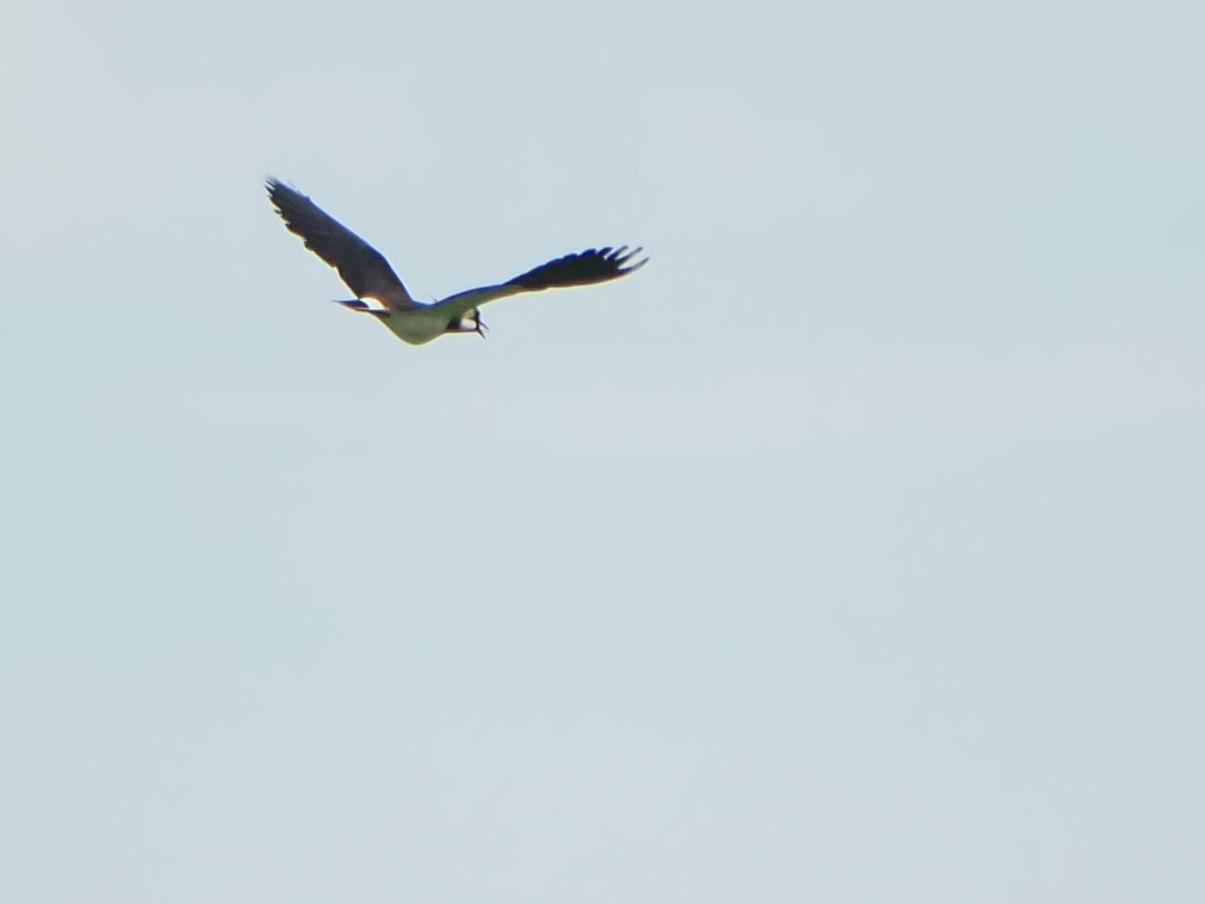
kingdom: Animalia
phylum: Chordata
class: Aves
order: Charadriiformes
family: Charadriidae
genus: Vanellus
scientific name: Vanellus vanellus
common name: Northern lapwing
